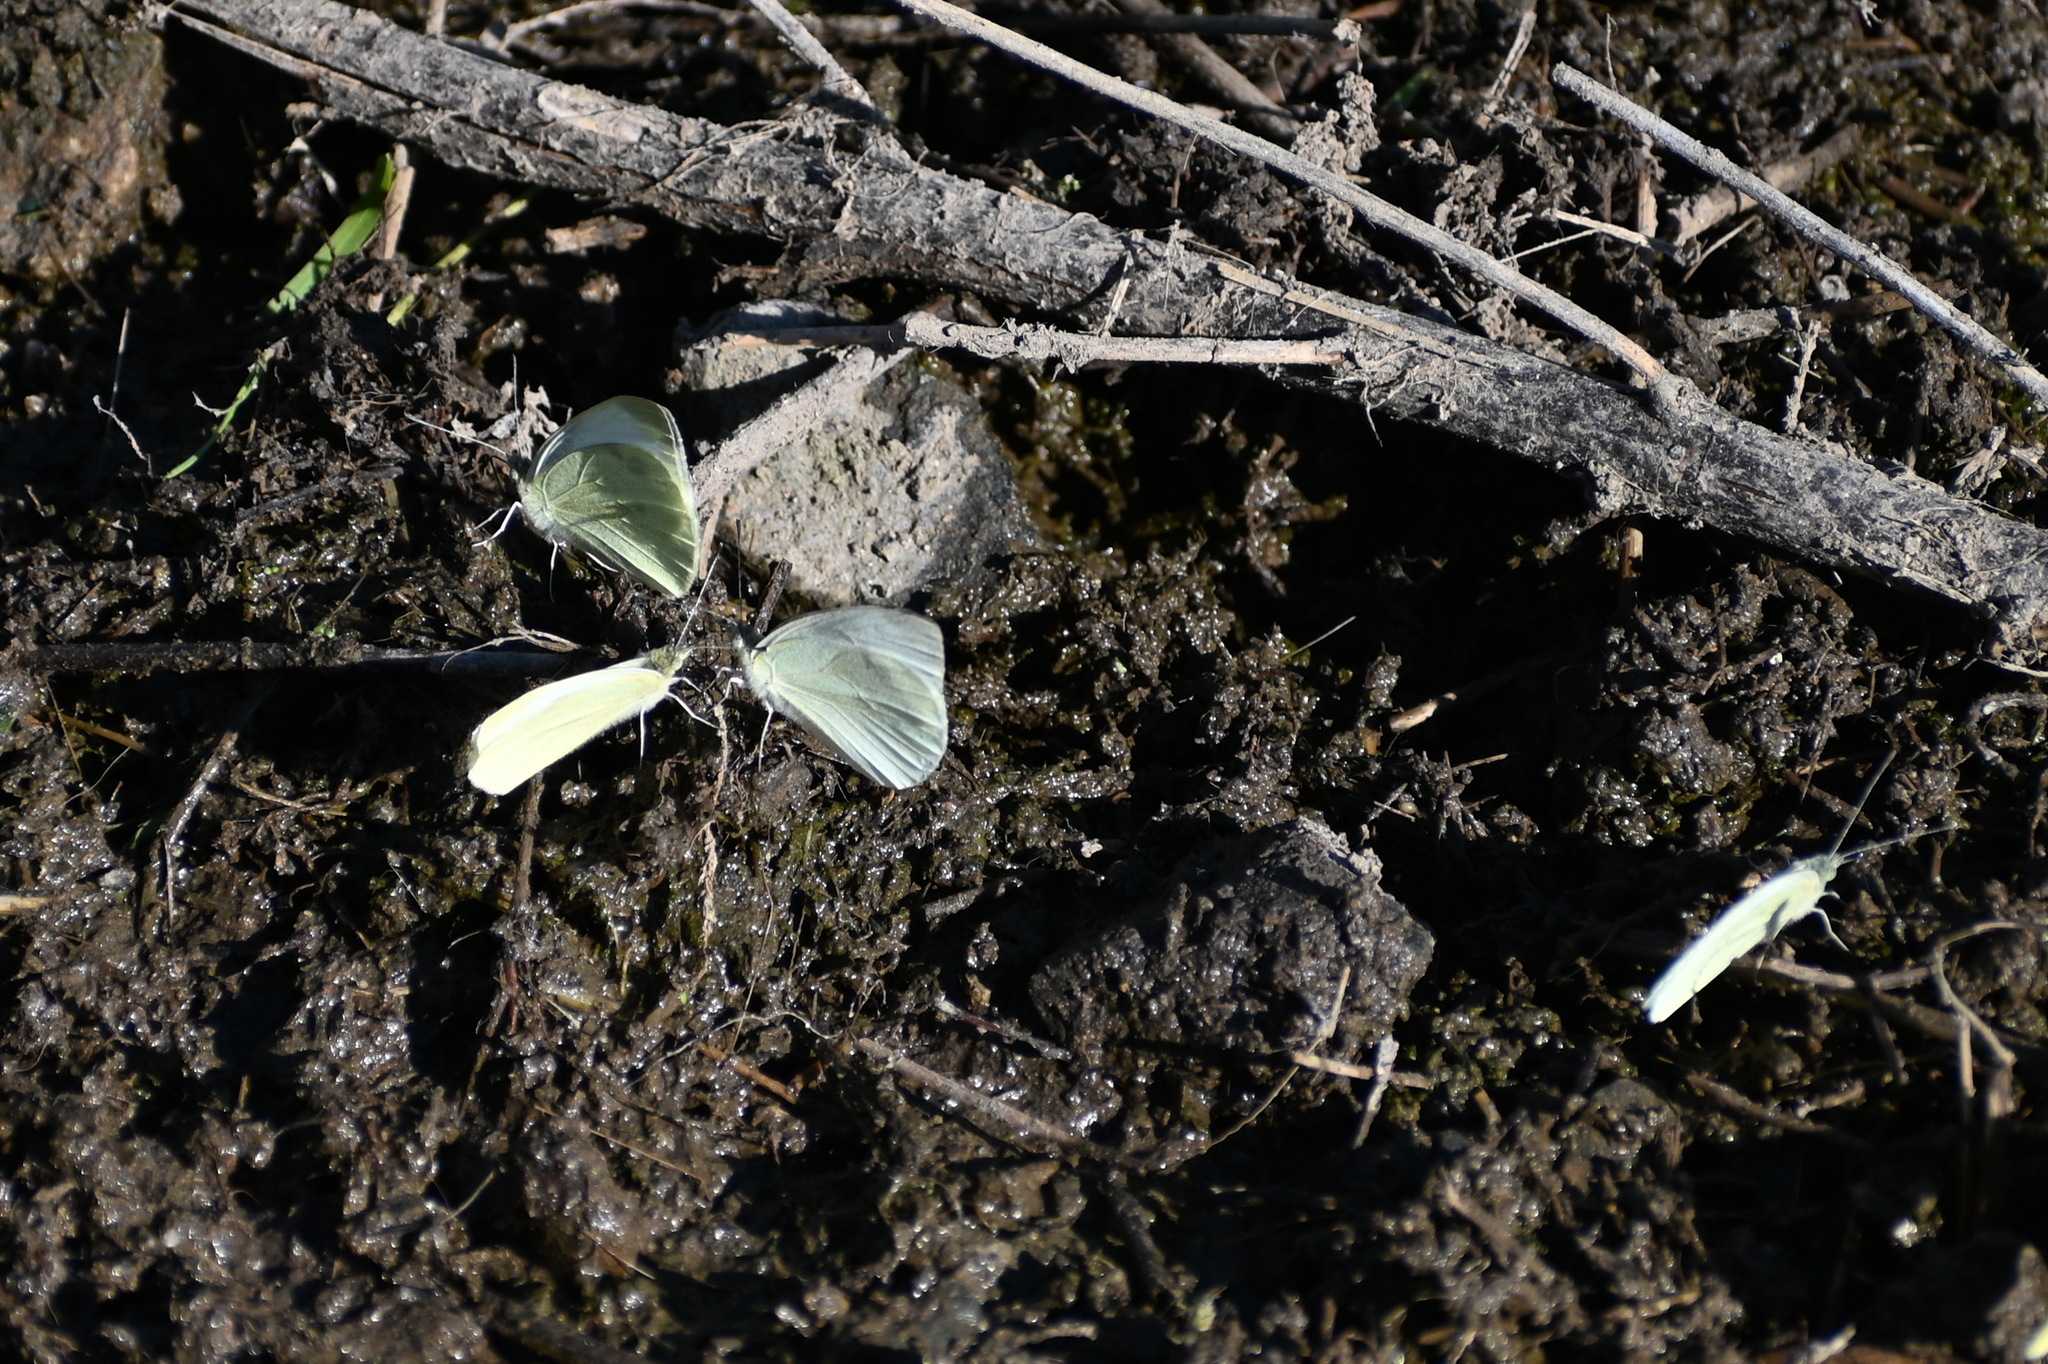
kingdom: Animalia
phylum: Arthropoda
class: Insecta
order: Lepidoptera
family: Pieridae
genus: Pieris
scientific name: Pieris rapae
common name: Small white
